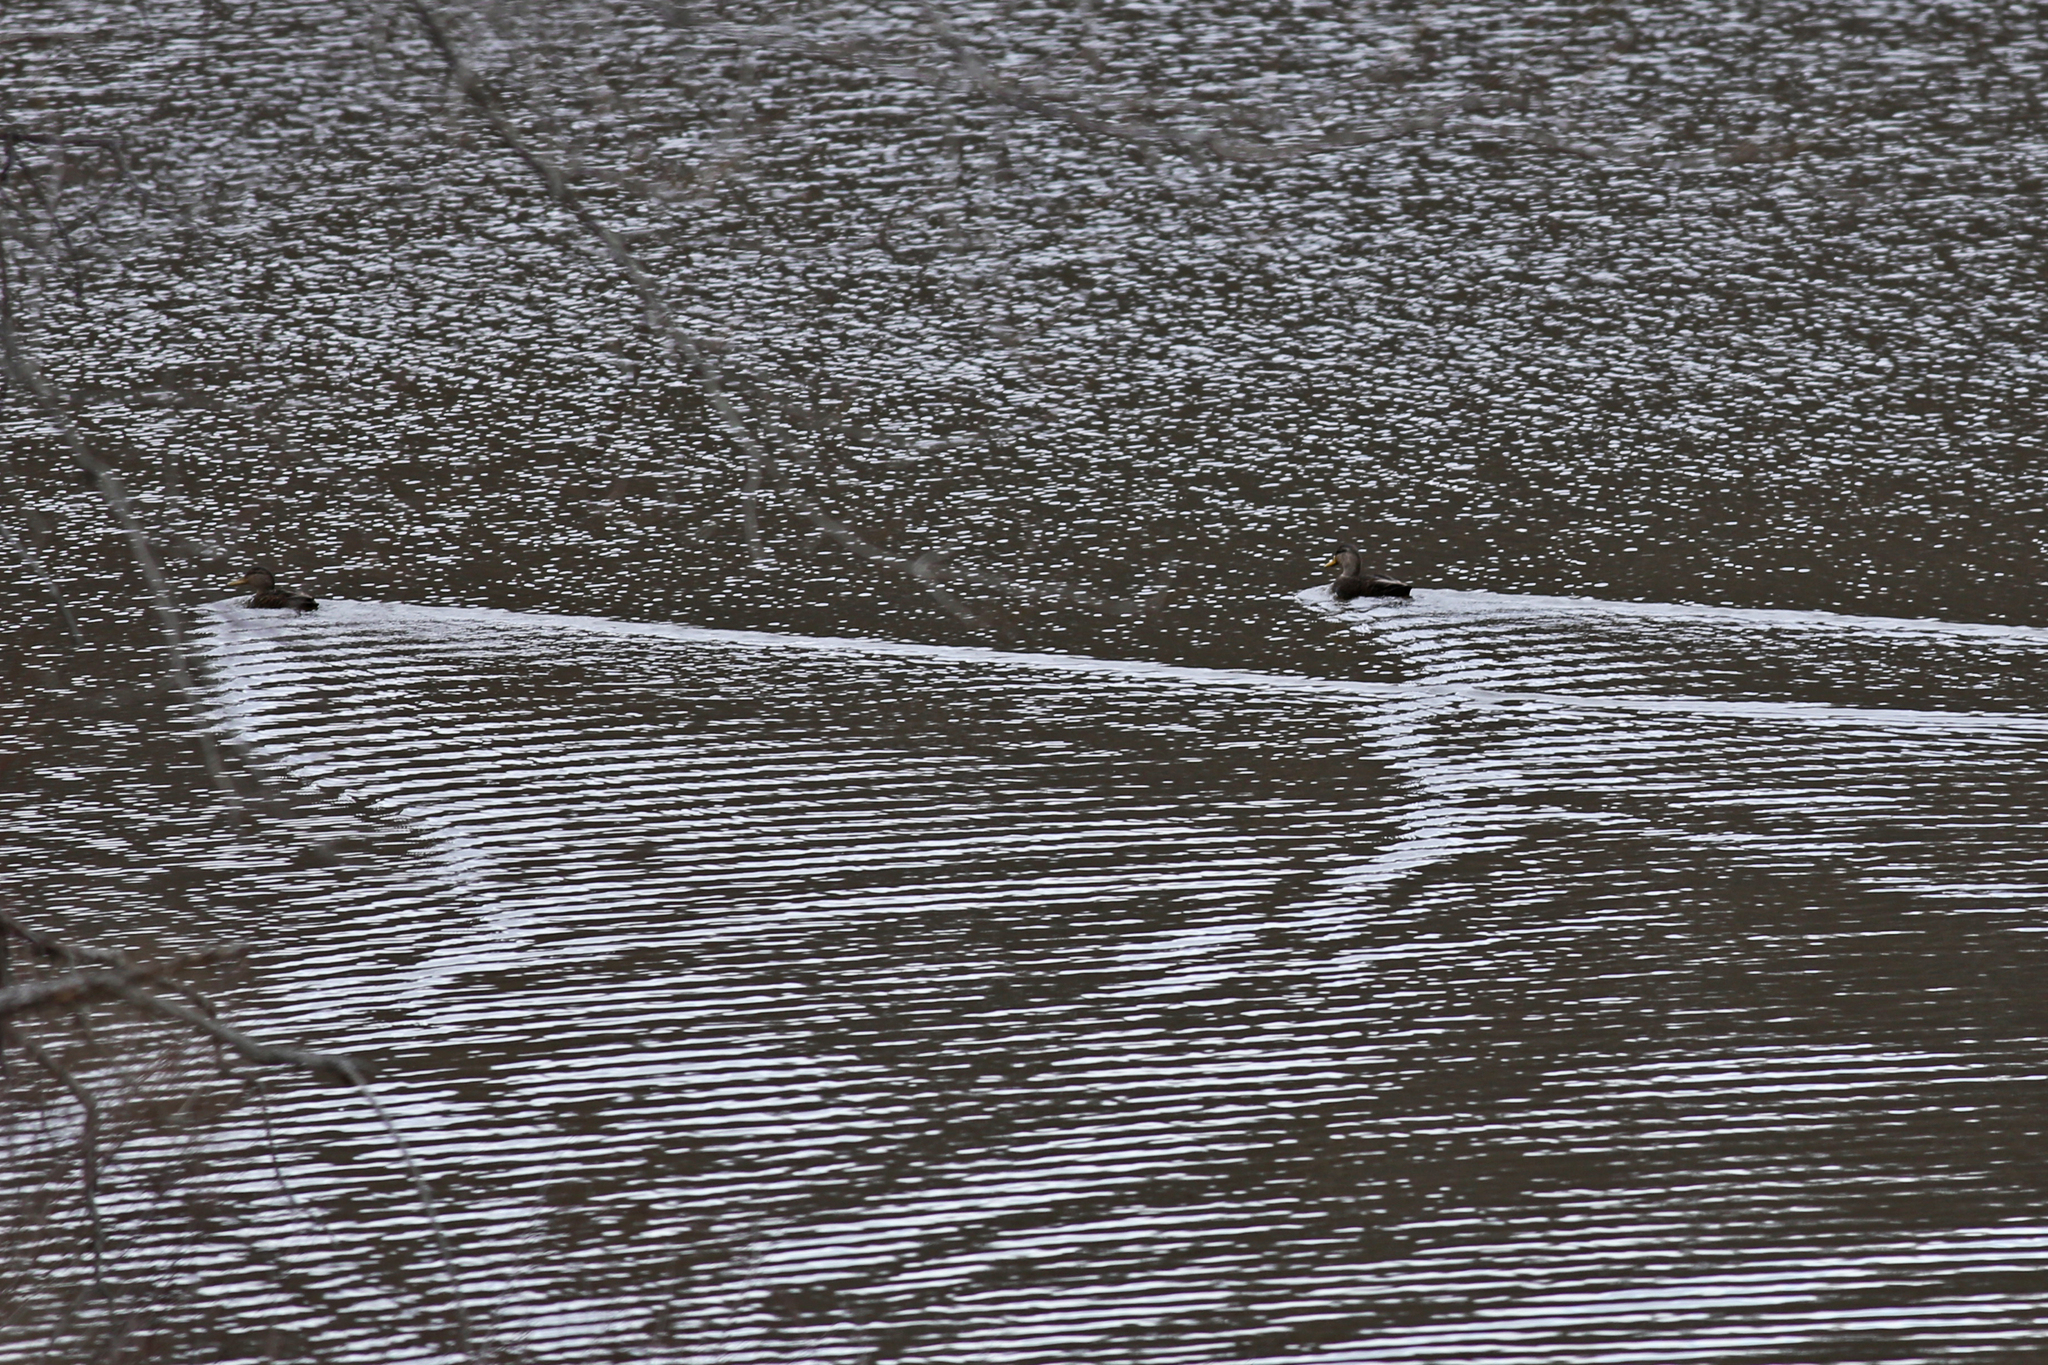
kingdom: Animalia
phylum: Chordata
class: Aves
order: Anseriformes
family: Anatidae
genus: Anas
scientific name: Anas rubripes
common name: American black duck
